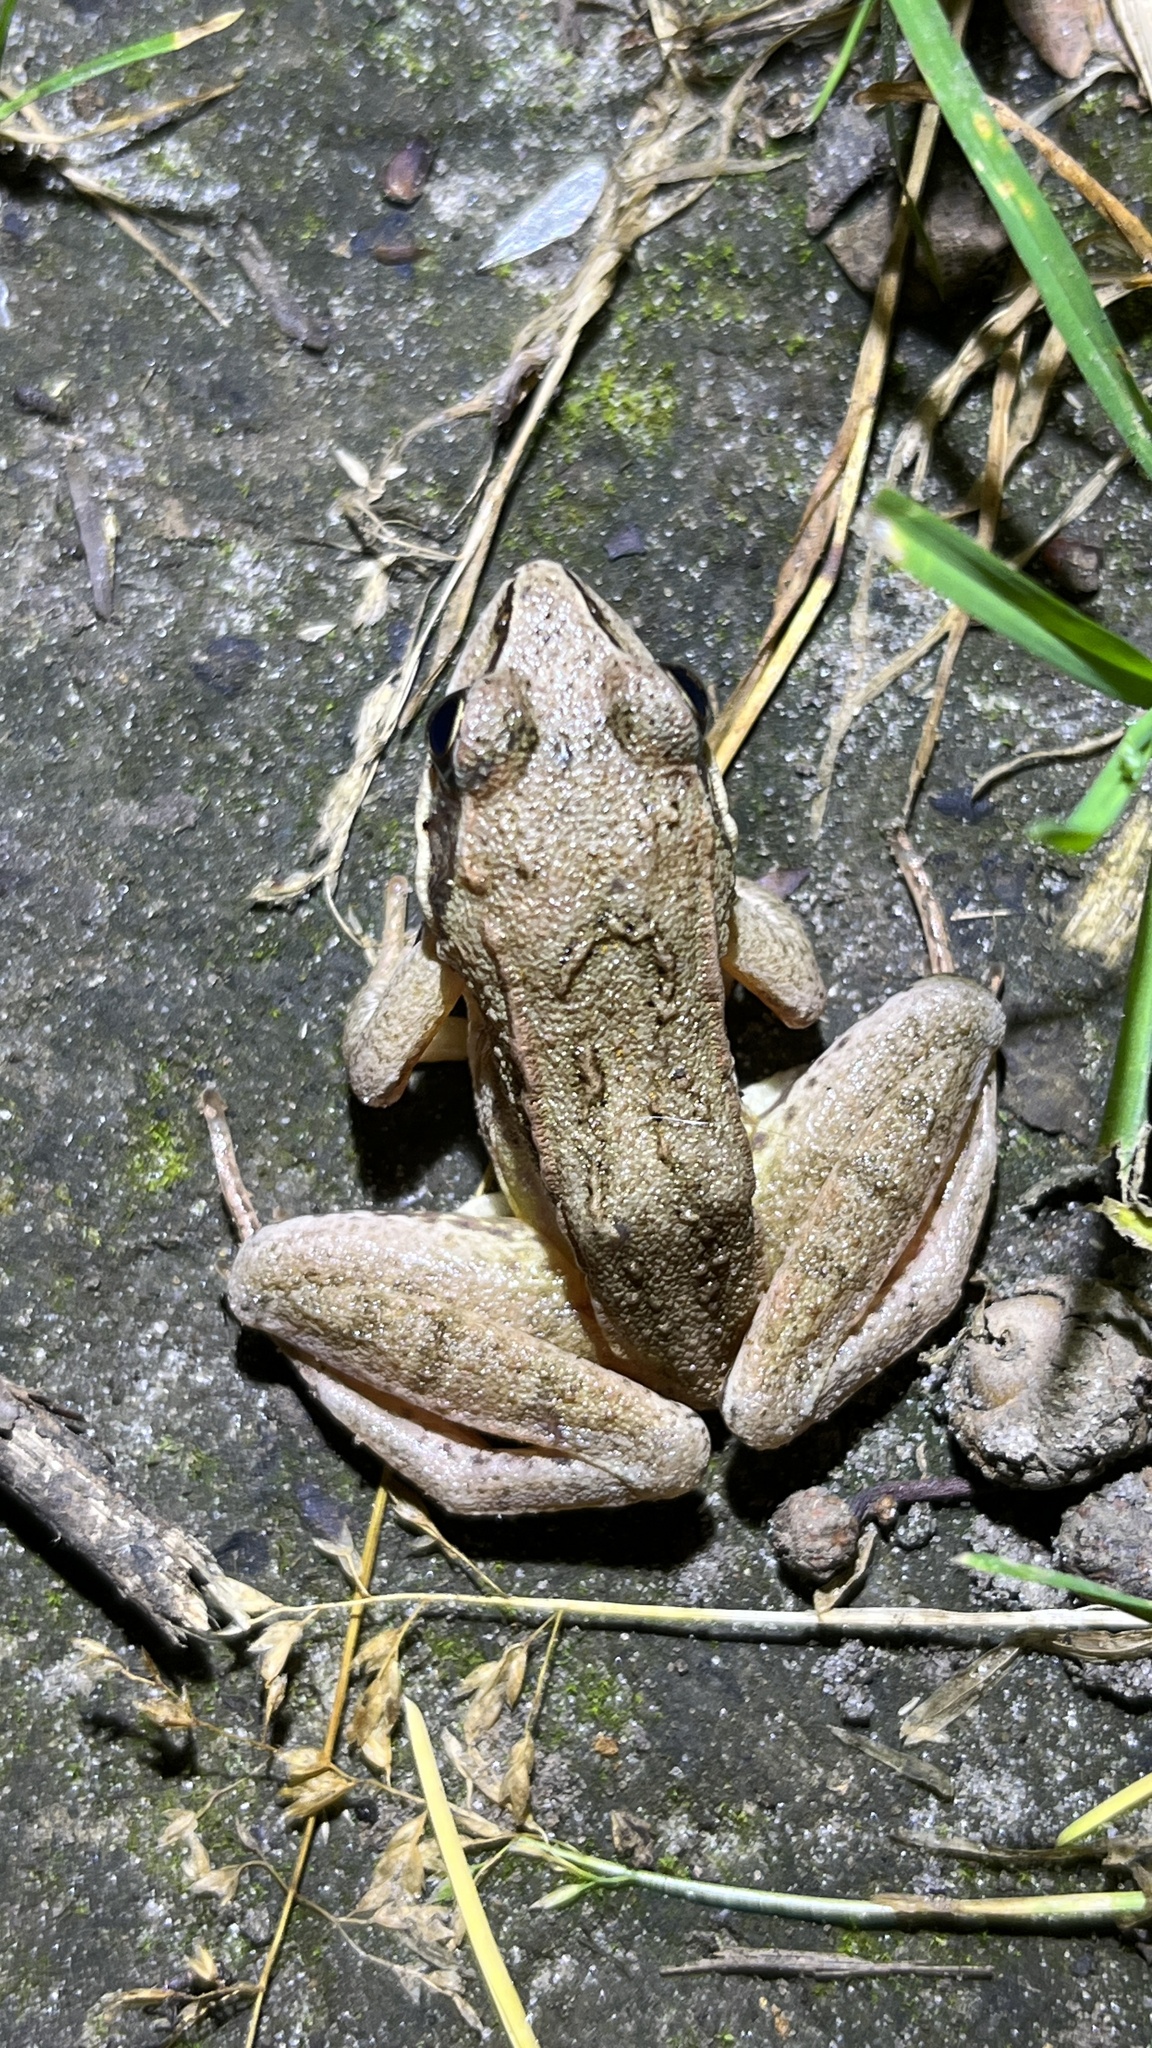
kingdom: Animalia
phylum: Chordata
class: Amphibia
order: Anura
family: Ranidae
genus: Rana
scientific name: Rana arvalis
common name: Moor frog
